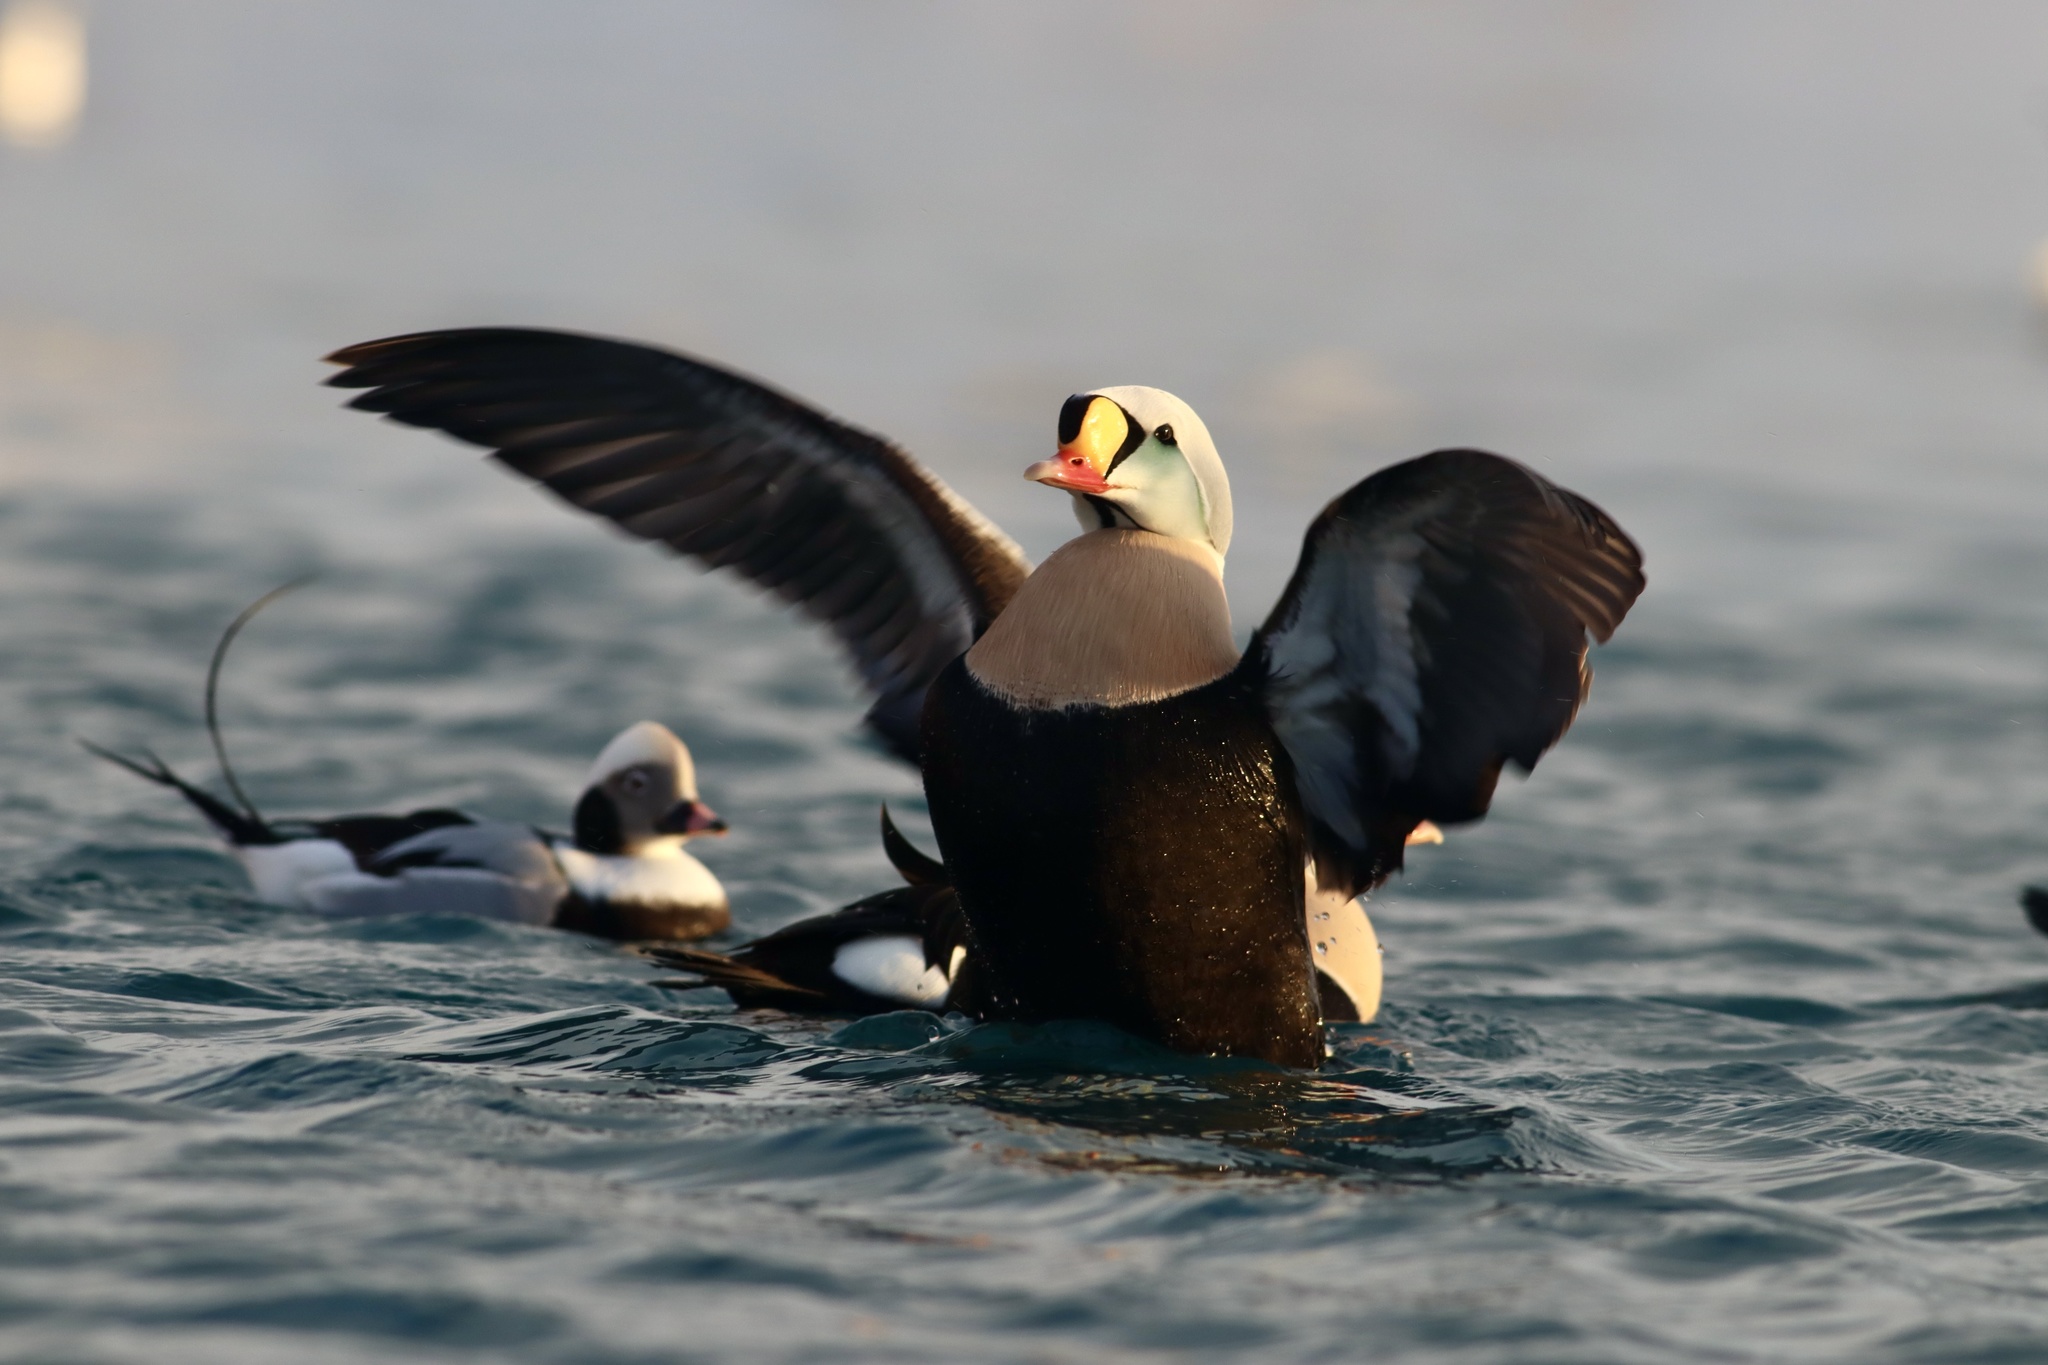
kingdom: Animalia
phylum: Chordata
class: Aves
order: Anseriformes
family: Anatidae
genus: Somateria
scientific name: Somateria spectabilis
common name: King eider
